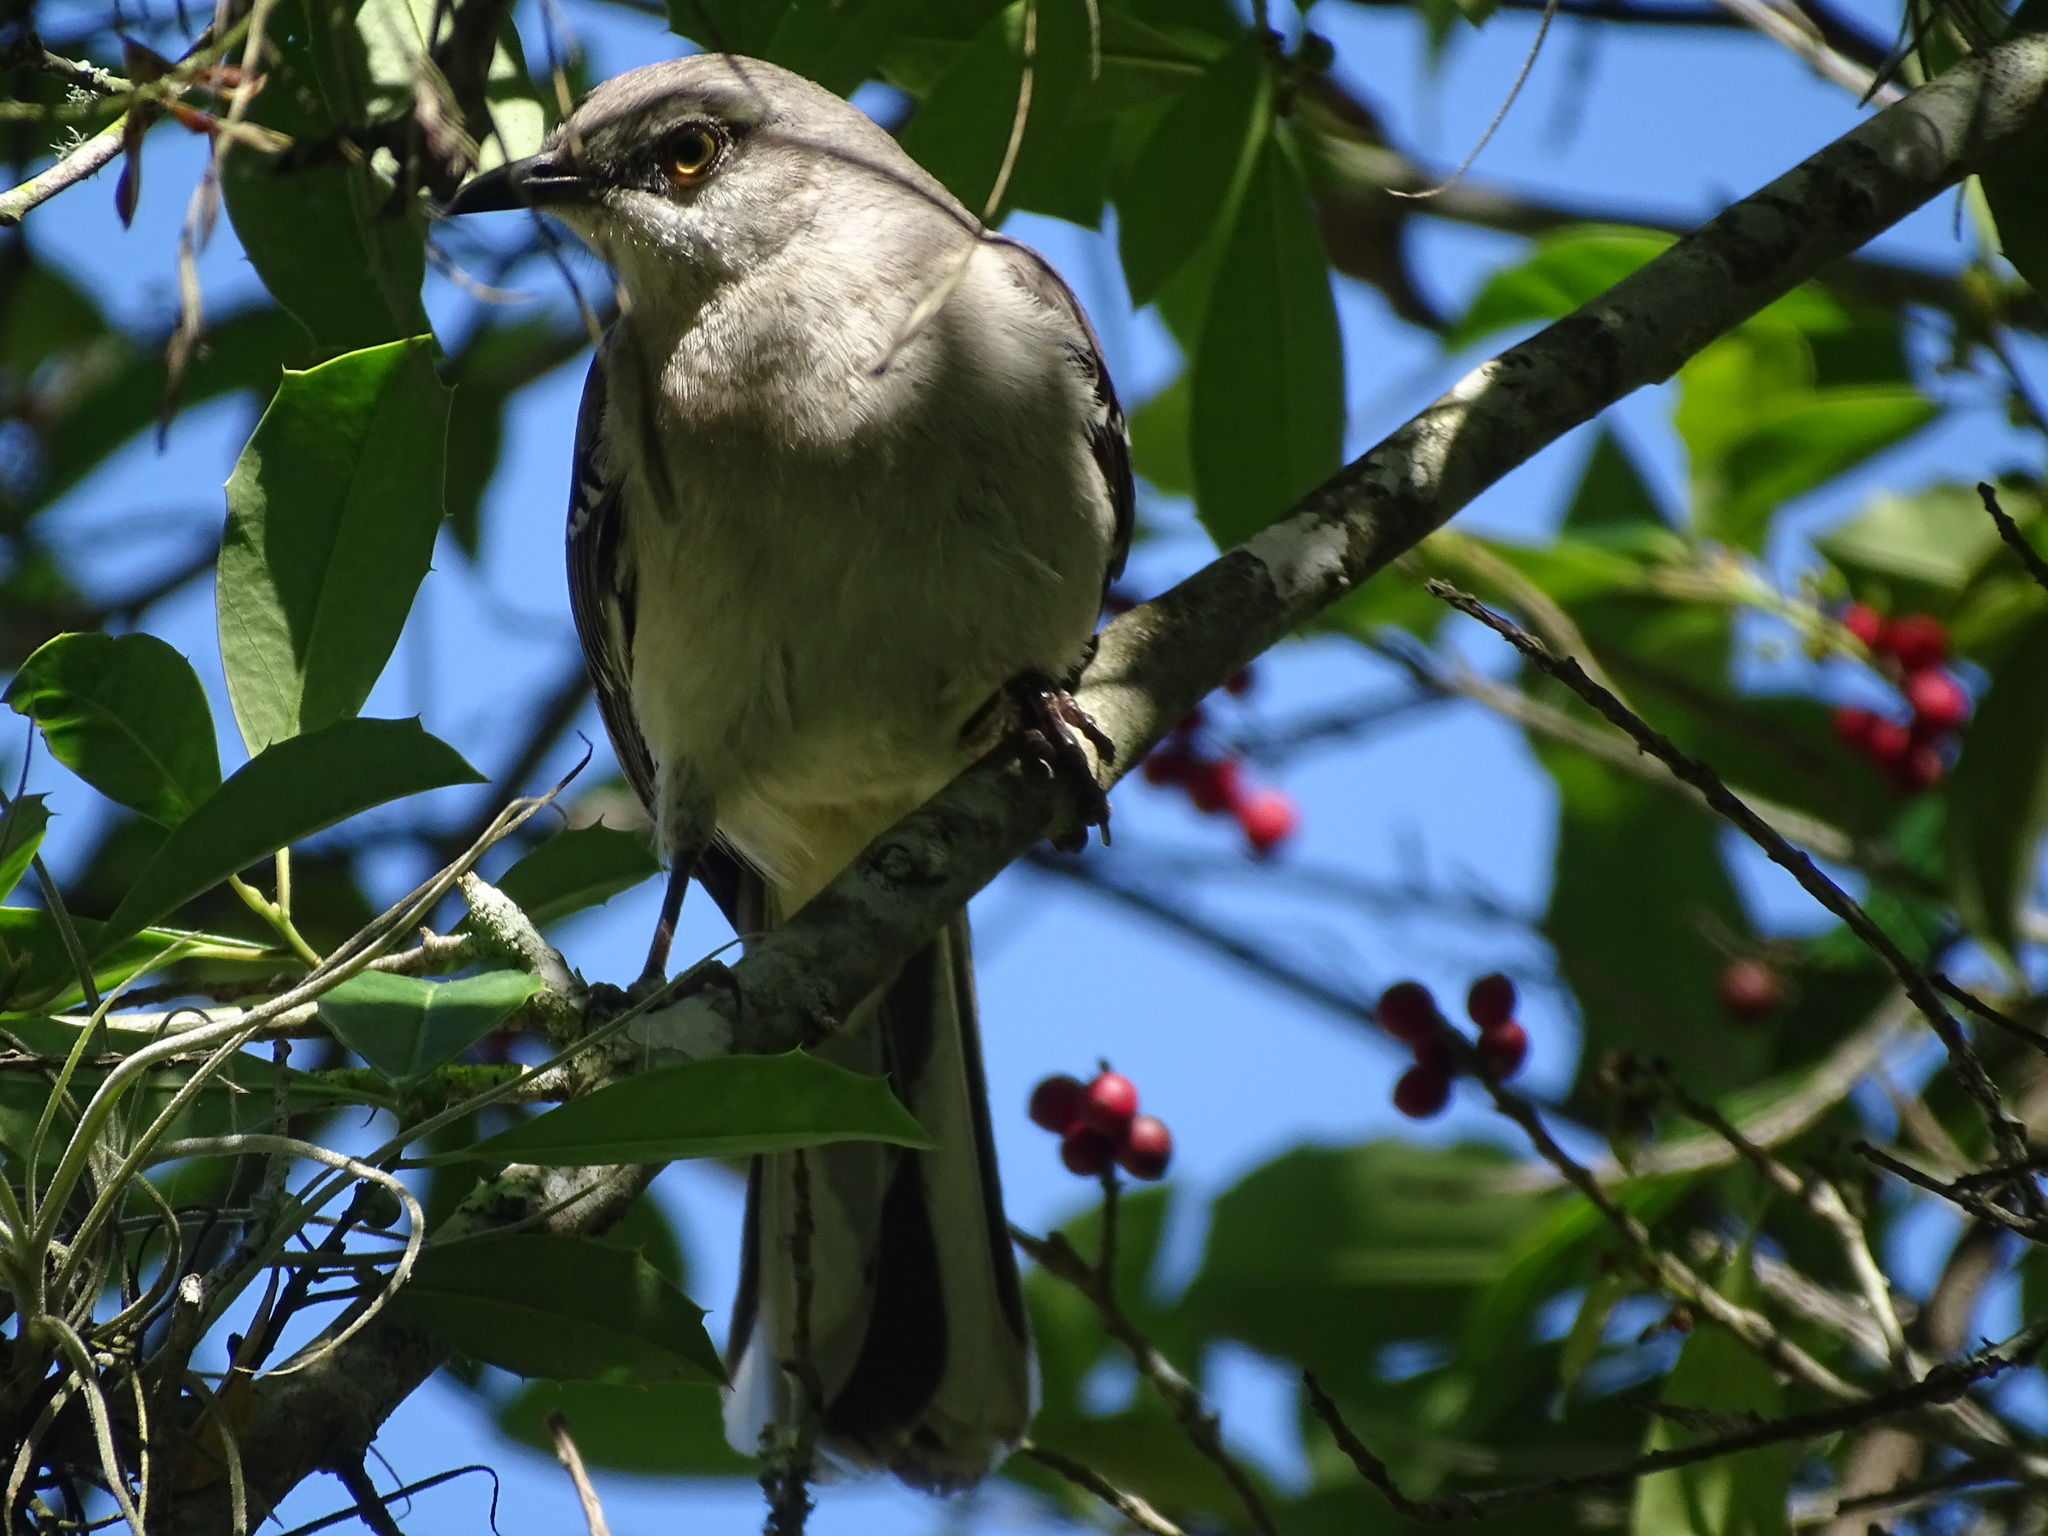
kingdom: Animalia
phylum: Chordata
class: Aves
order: Passeriformes
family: Mimidae
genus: Mimus
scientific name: Mimus polyglottos
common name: Northern mockingbird
